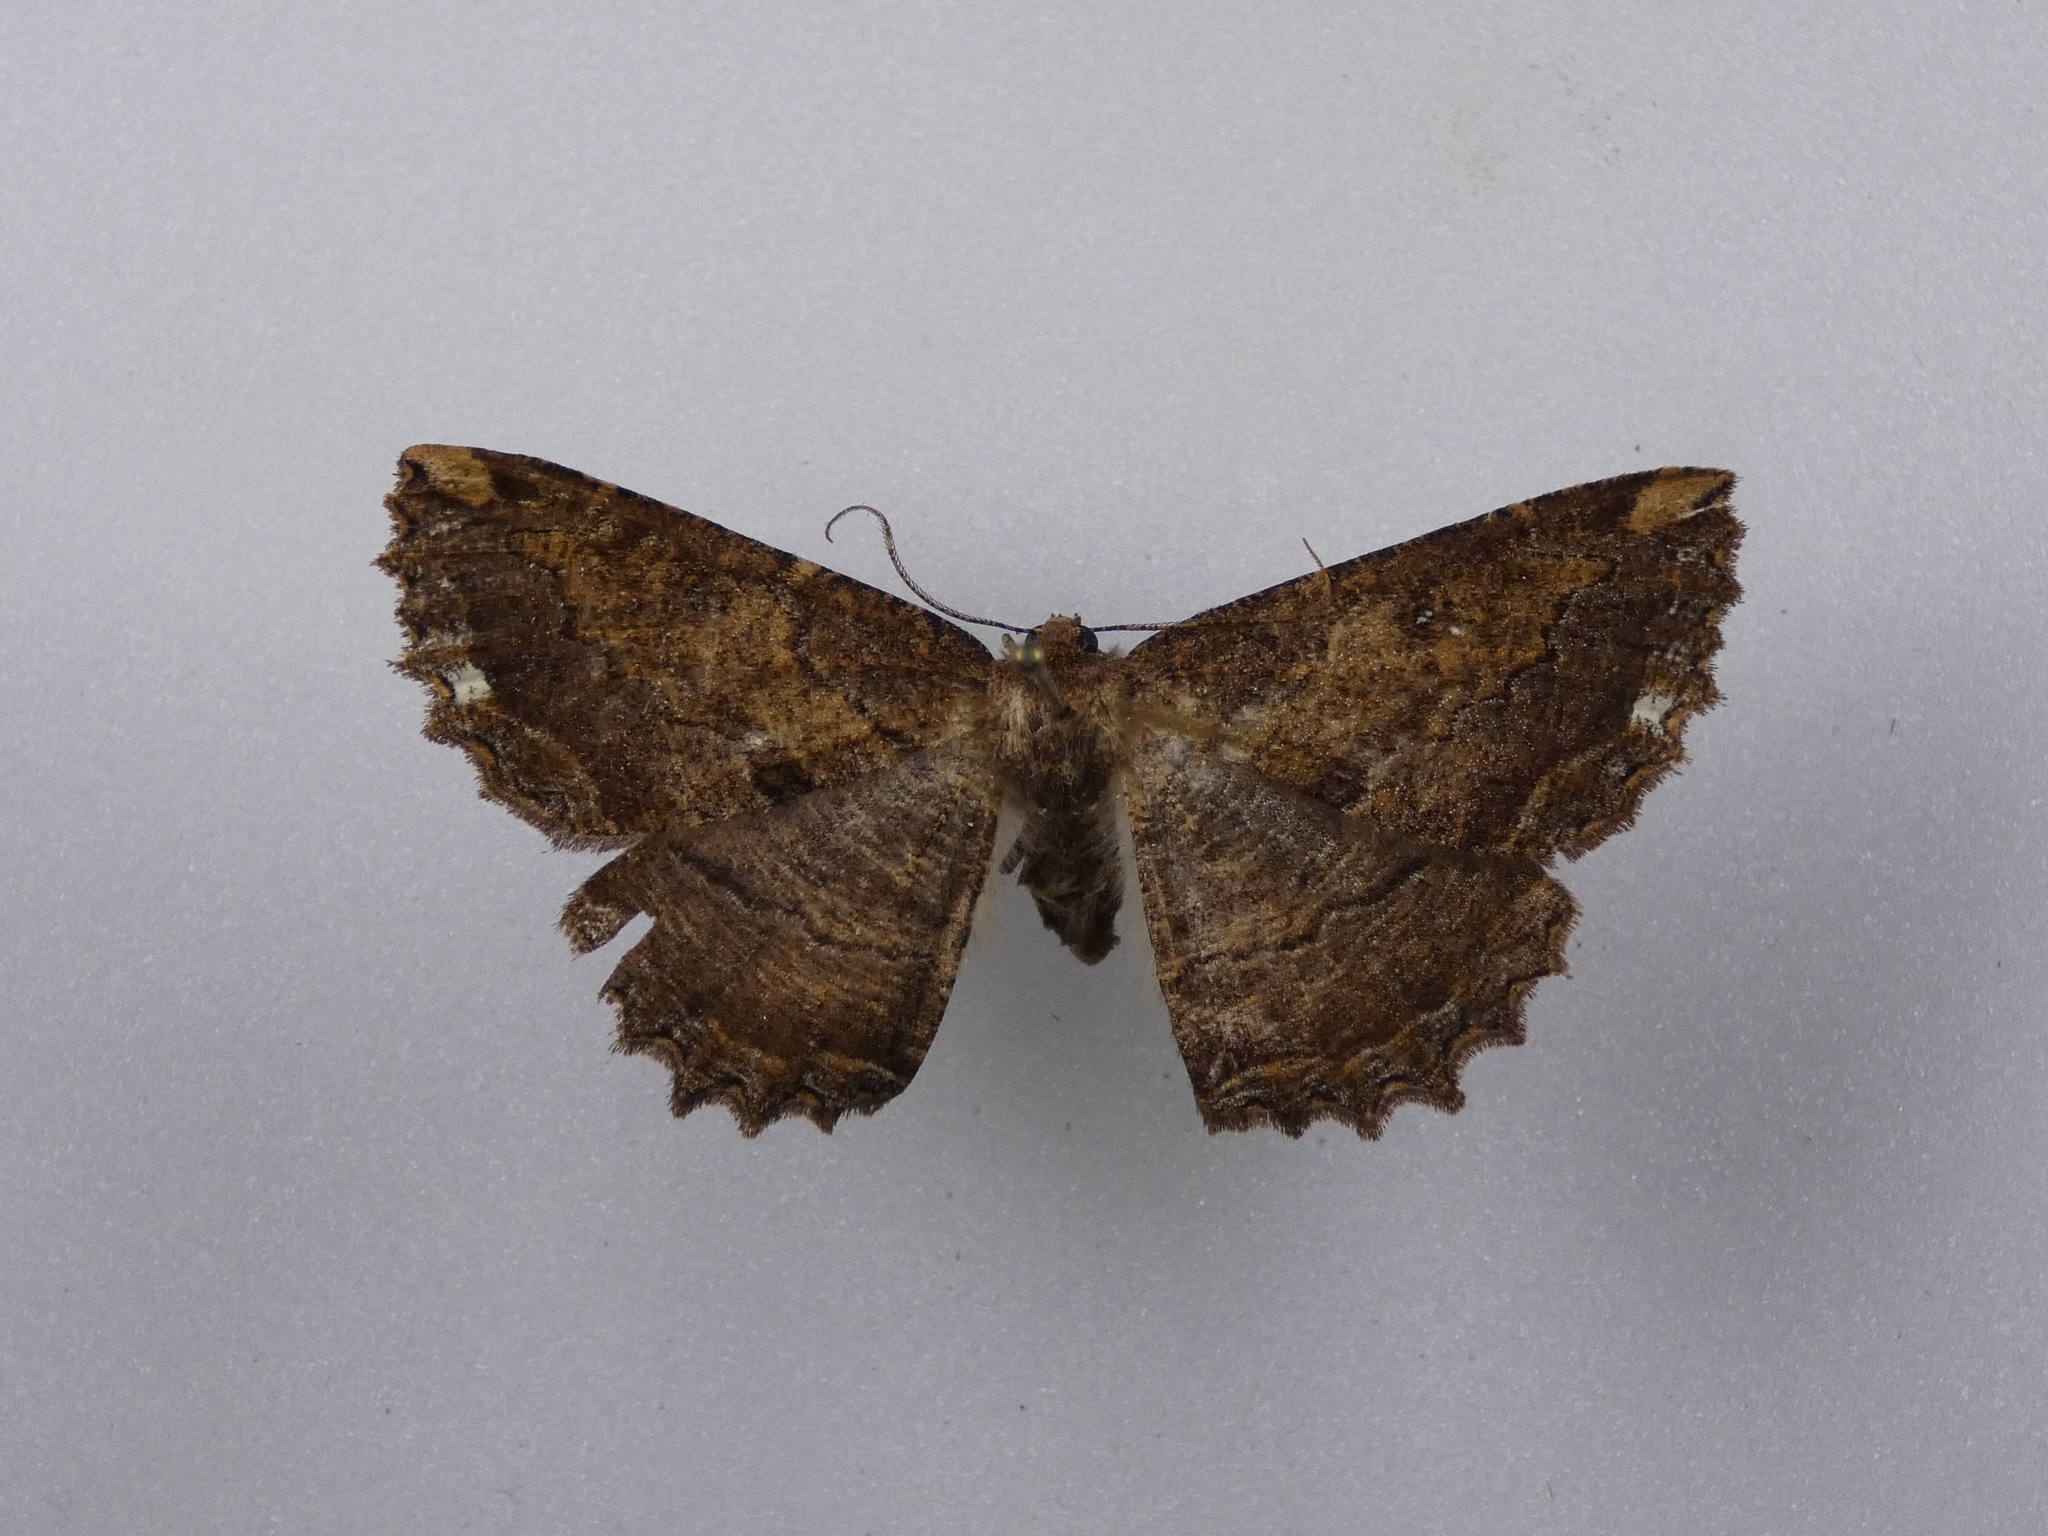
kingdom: Animalia
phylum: Arthropoda
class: Insecta
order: Lepidoptera
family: Geometridae
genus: Gellonia
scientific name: Gellonia dejectaria
